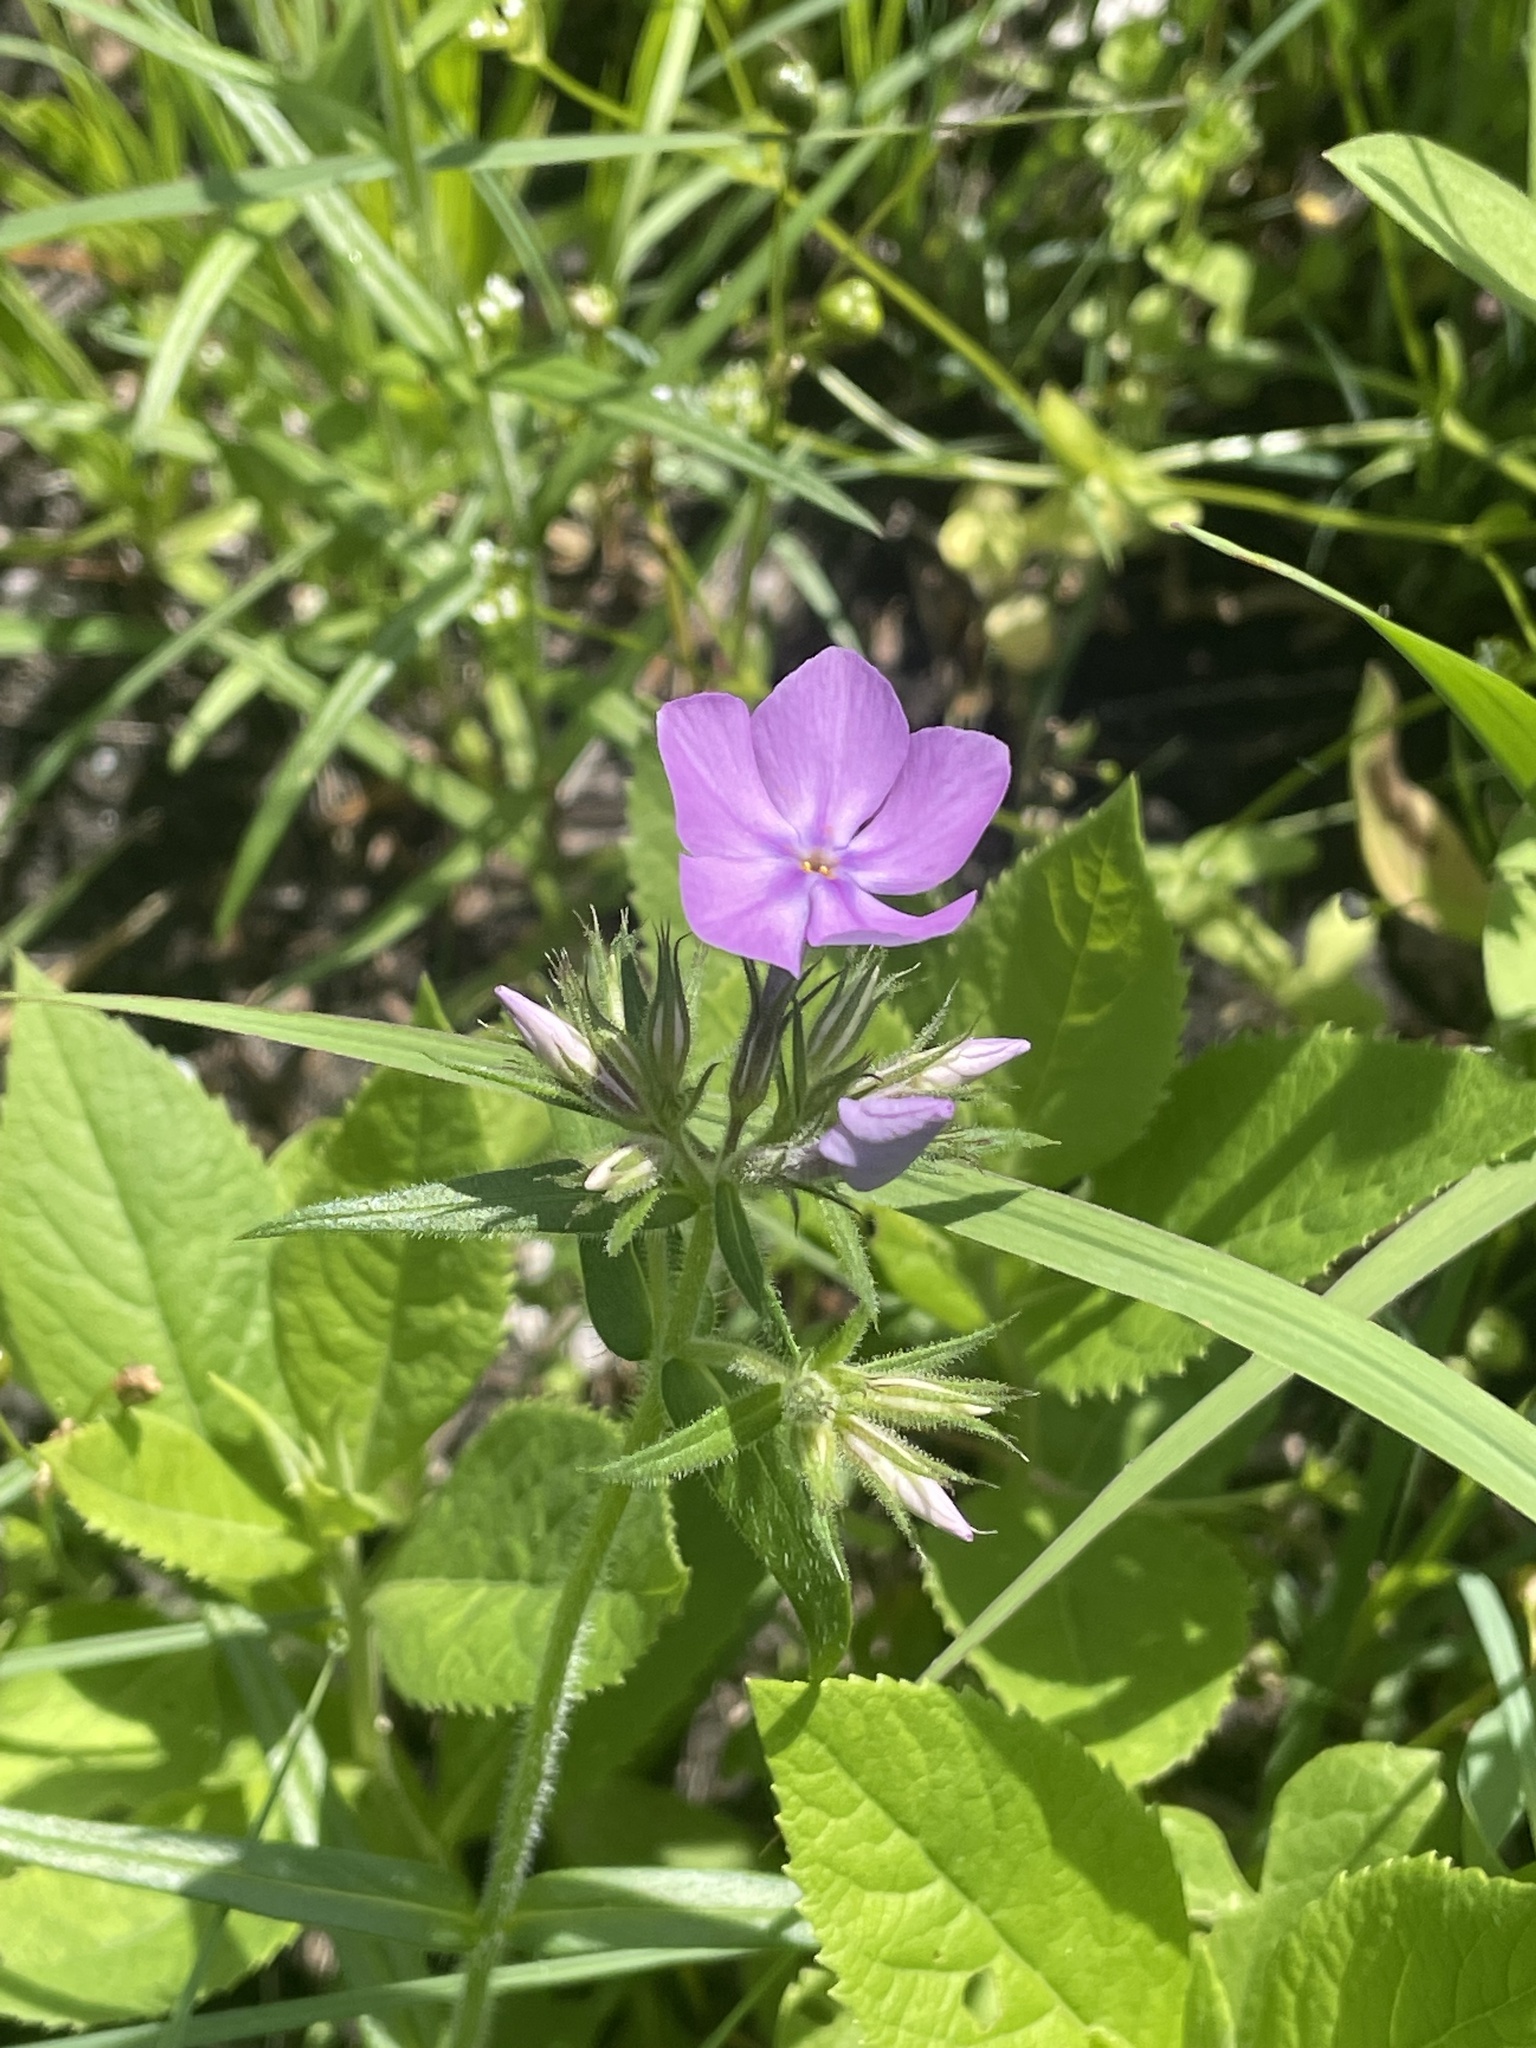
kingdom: Plantae
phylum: Tracheophyta
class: Magnoliopsida
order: Ericales
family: Polemoniaceae
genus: Phlox
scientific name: Phlox pilosa
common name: Prairie phlox
